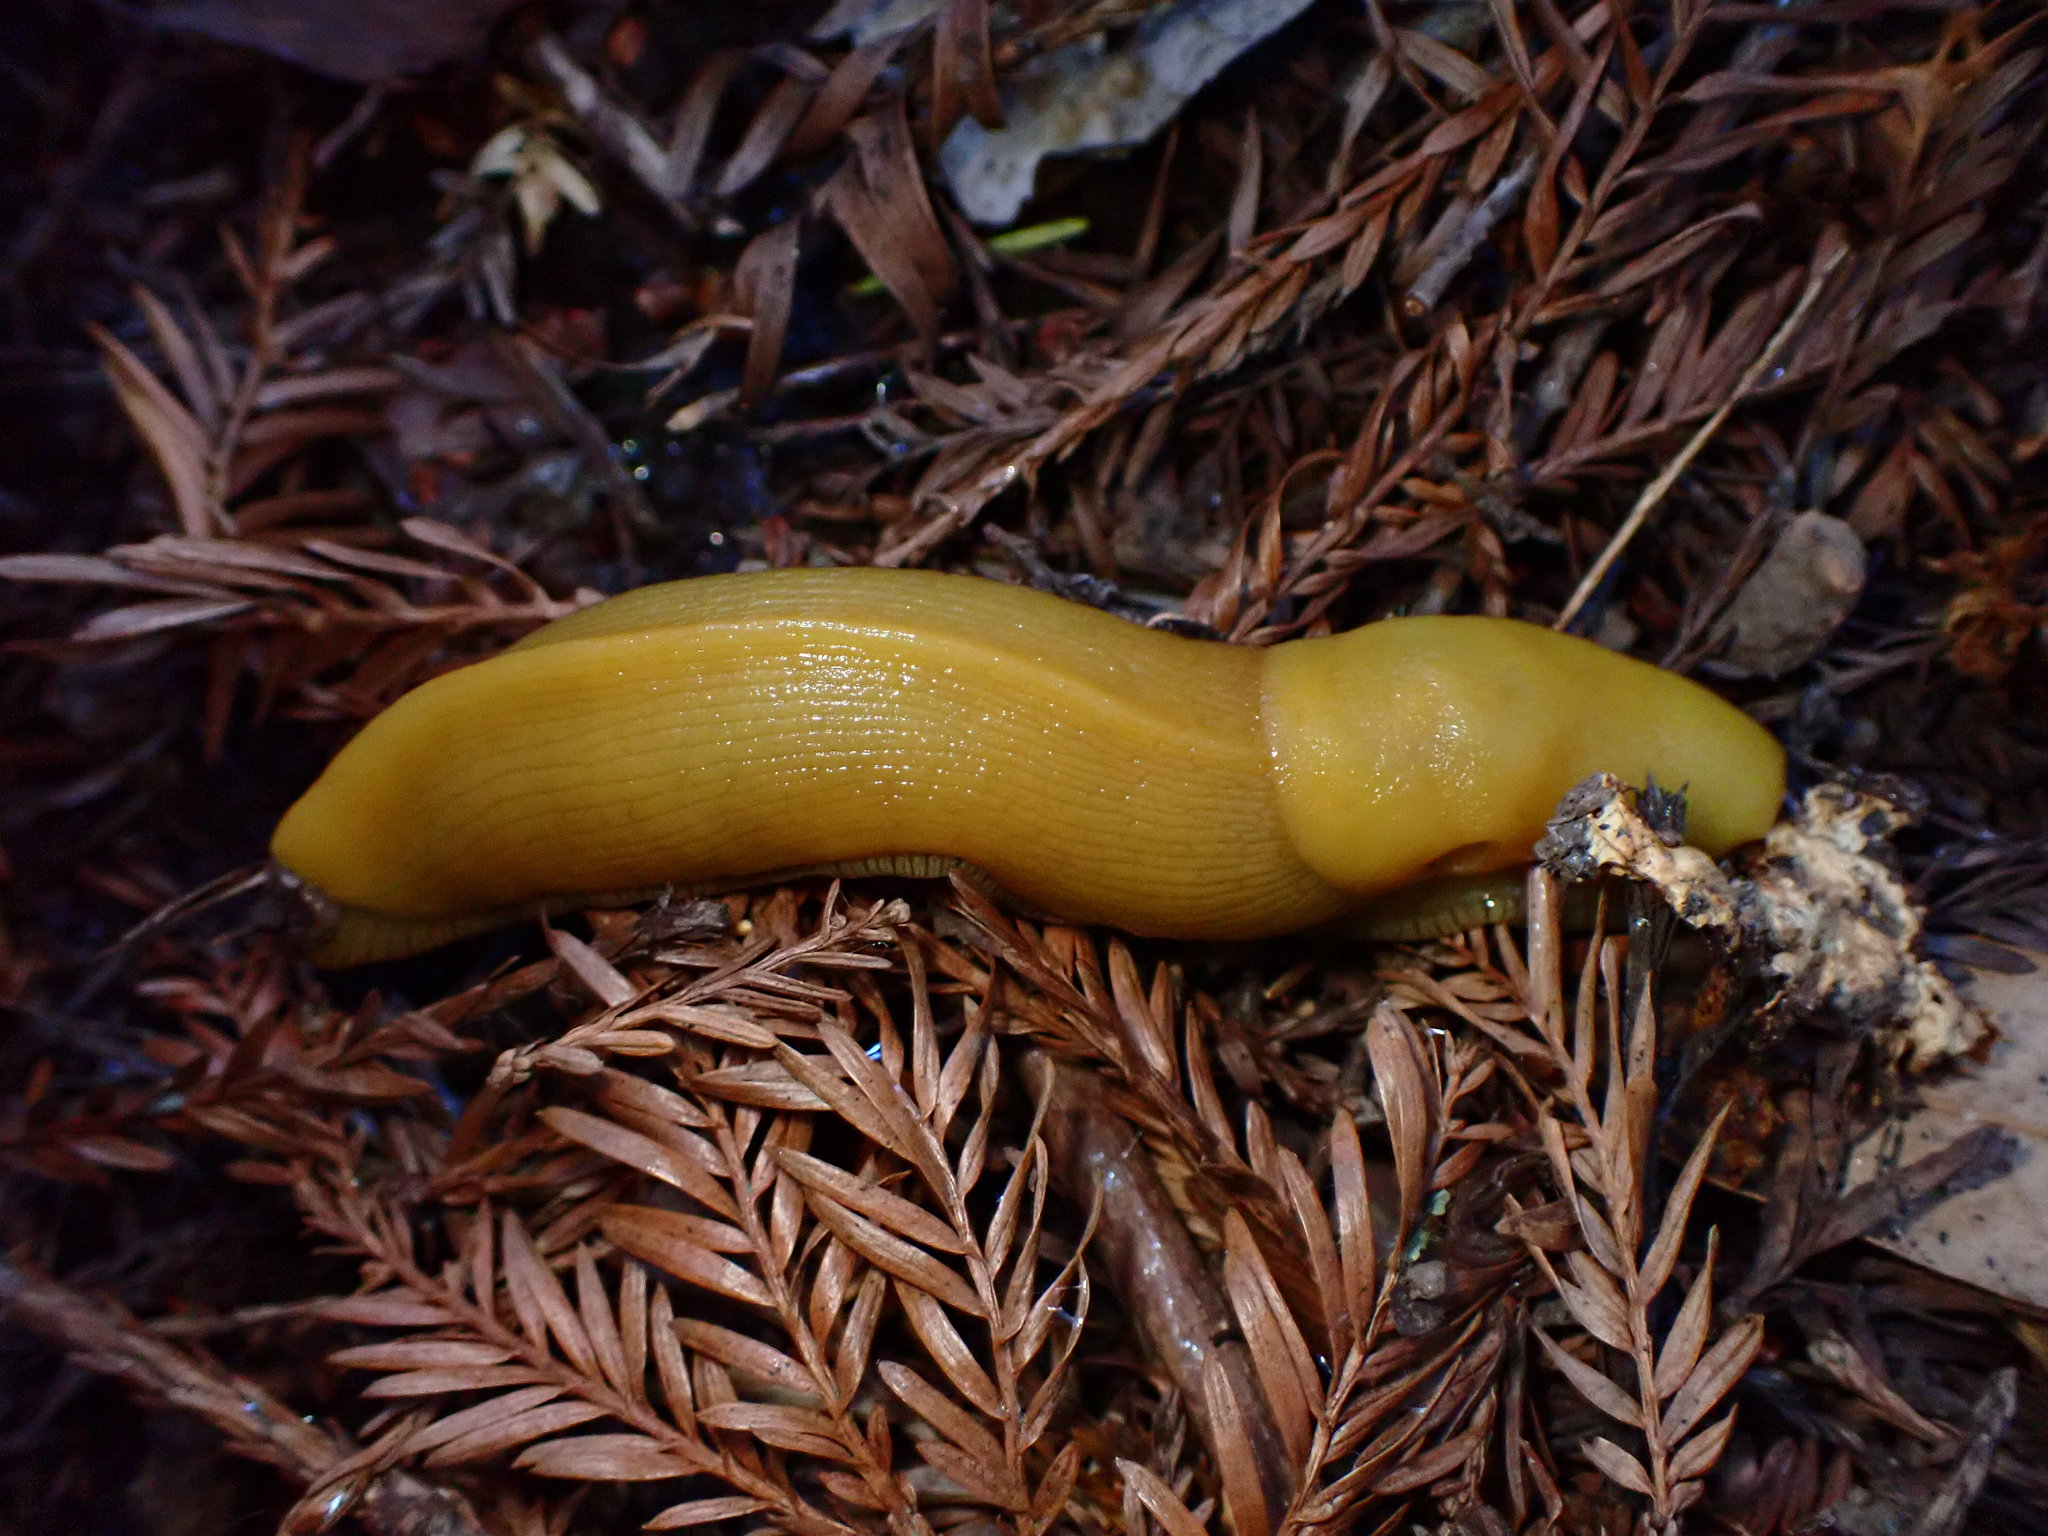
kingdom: Animalia
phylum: Mollusca
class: Gastropoda
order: Stylommatophora
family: Ariolimacidae
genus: Ariolimax
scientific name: Ariolimax californicus
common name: California banana slug
